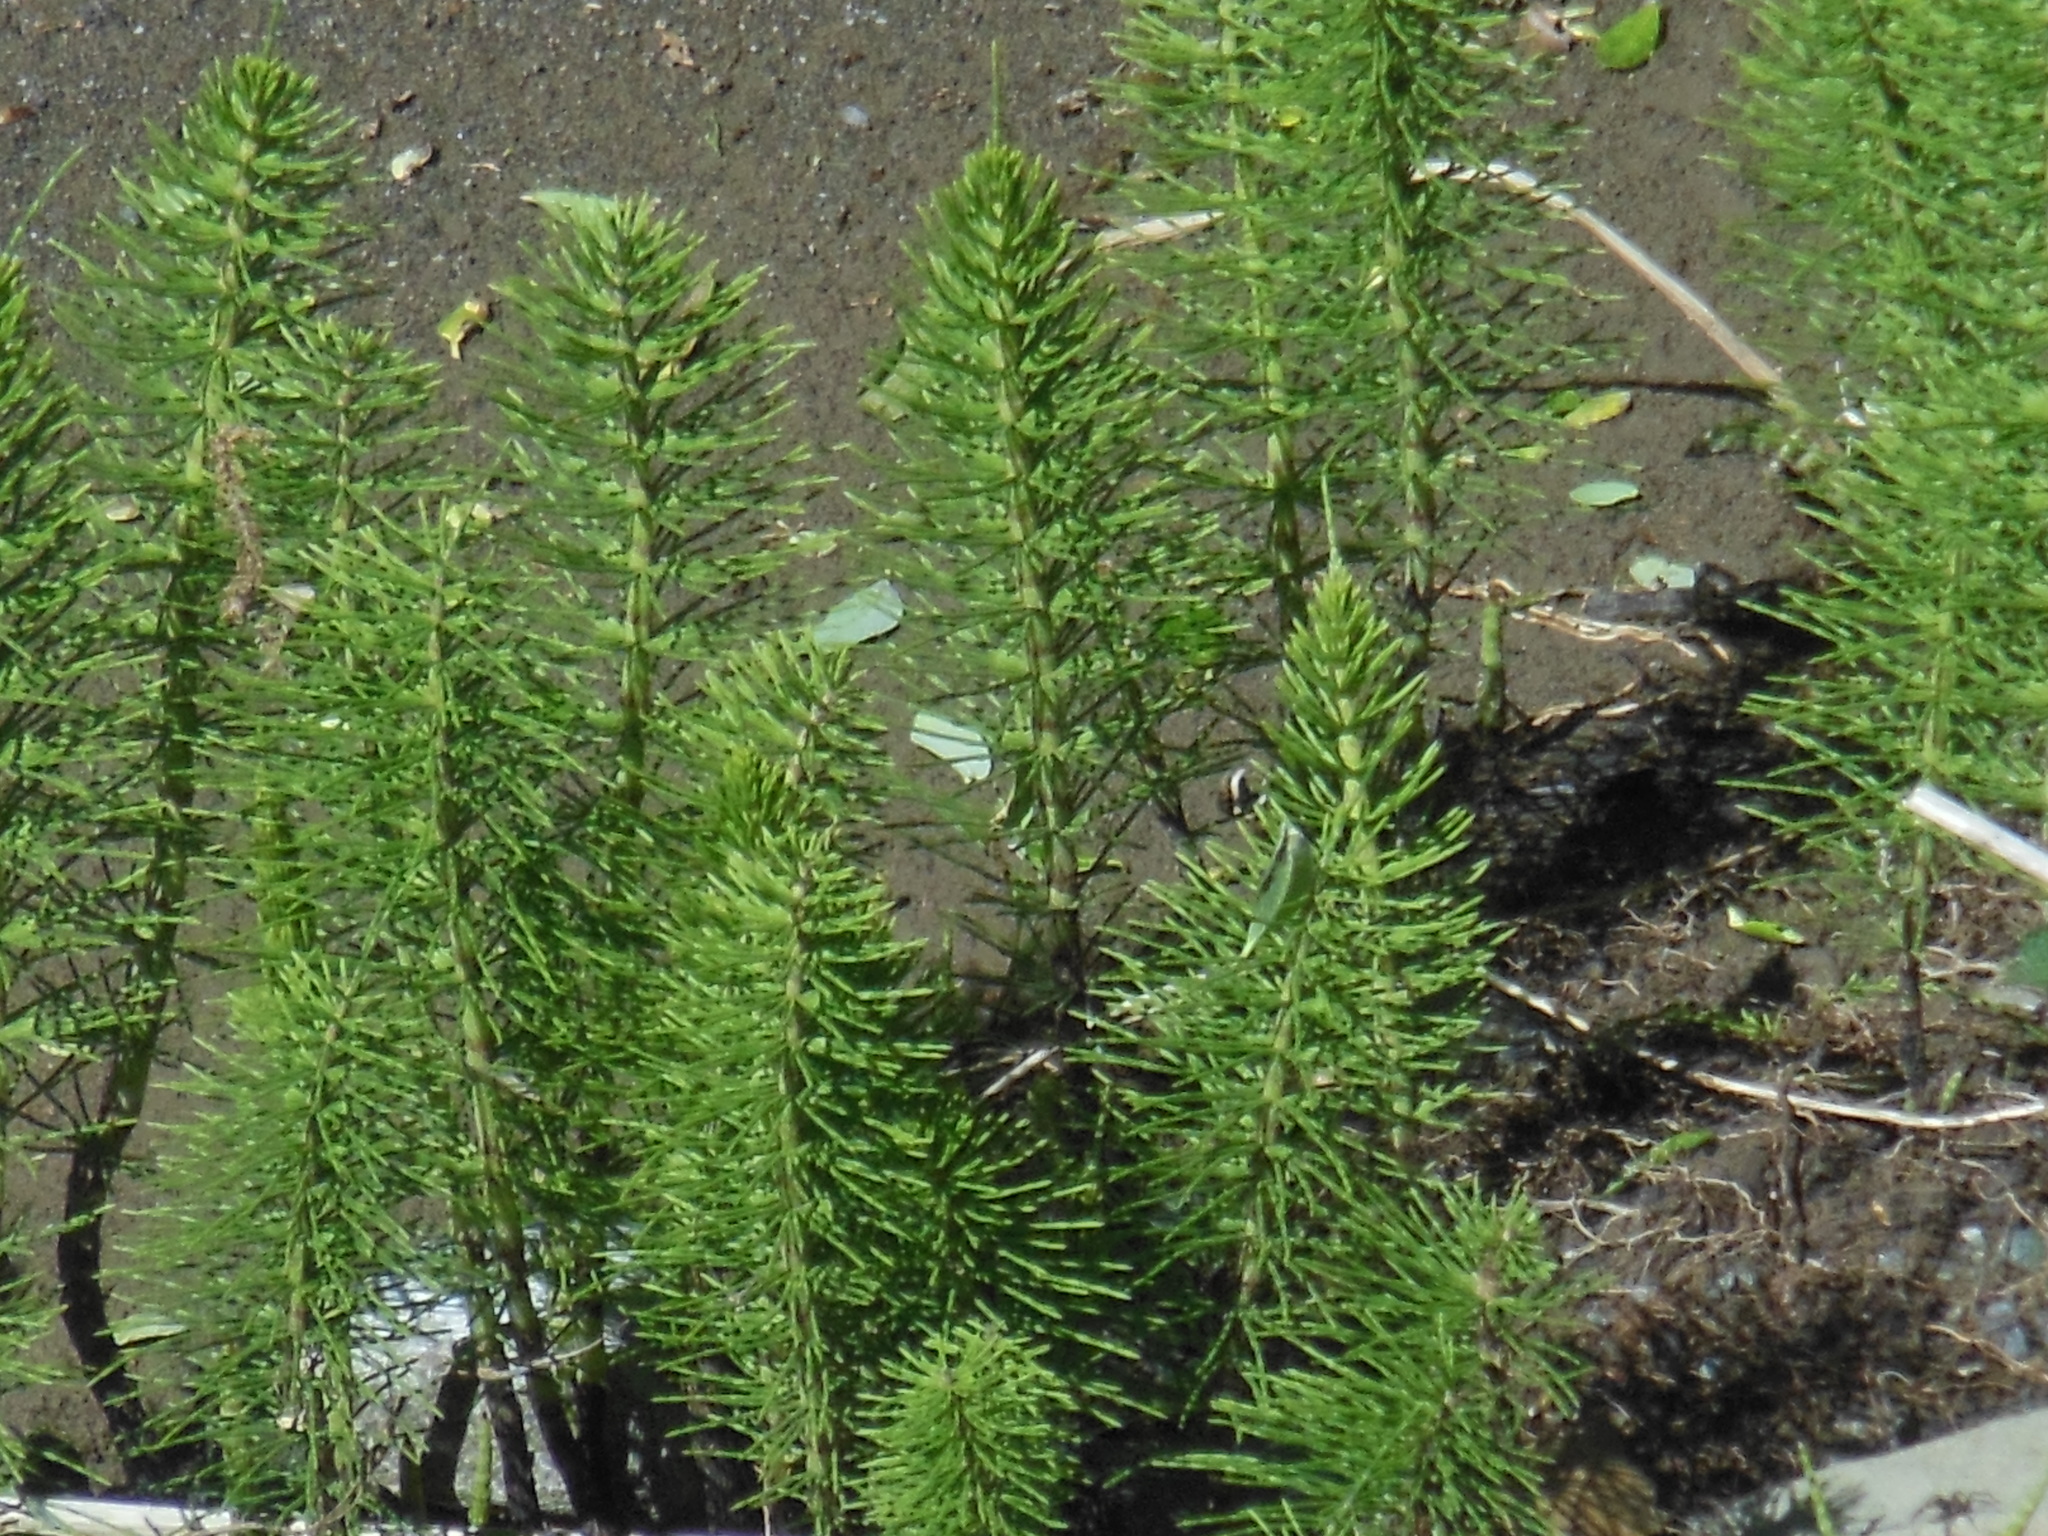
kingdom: Plantae
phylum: Tracheophyta
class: Polypodiopsida
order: Equisetales
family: Equisetaceae
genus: Equisetum
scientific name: Equisetum telmateia
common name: Great horsetail
